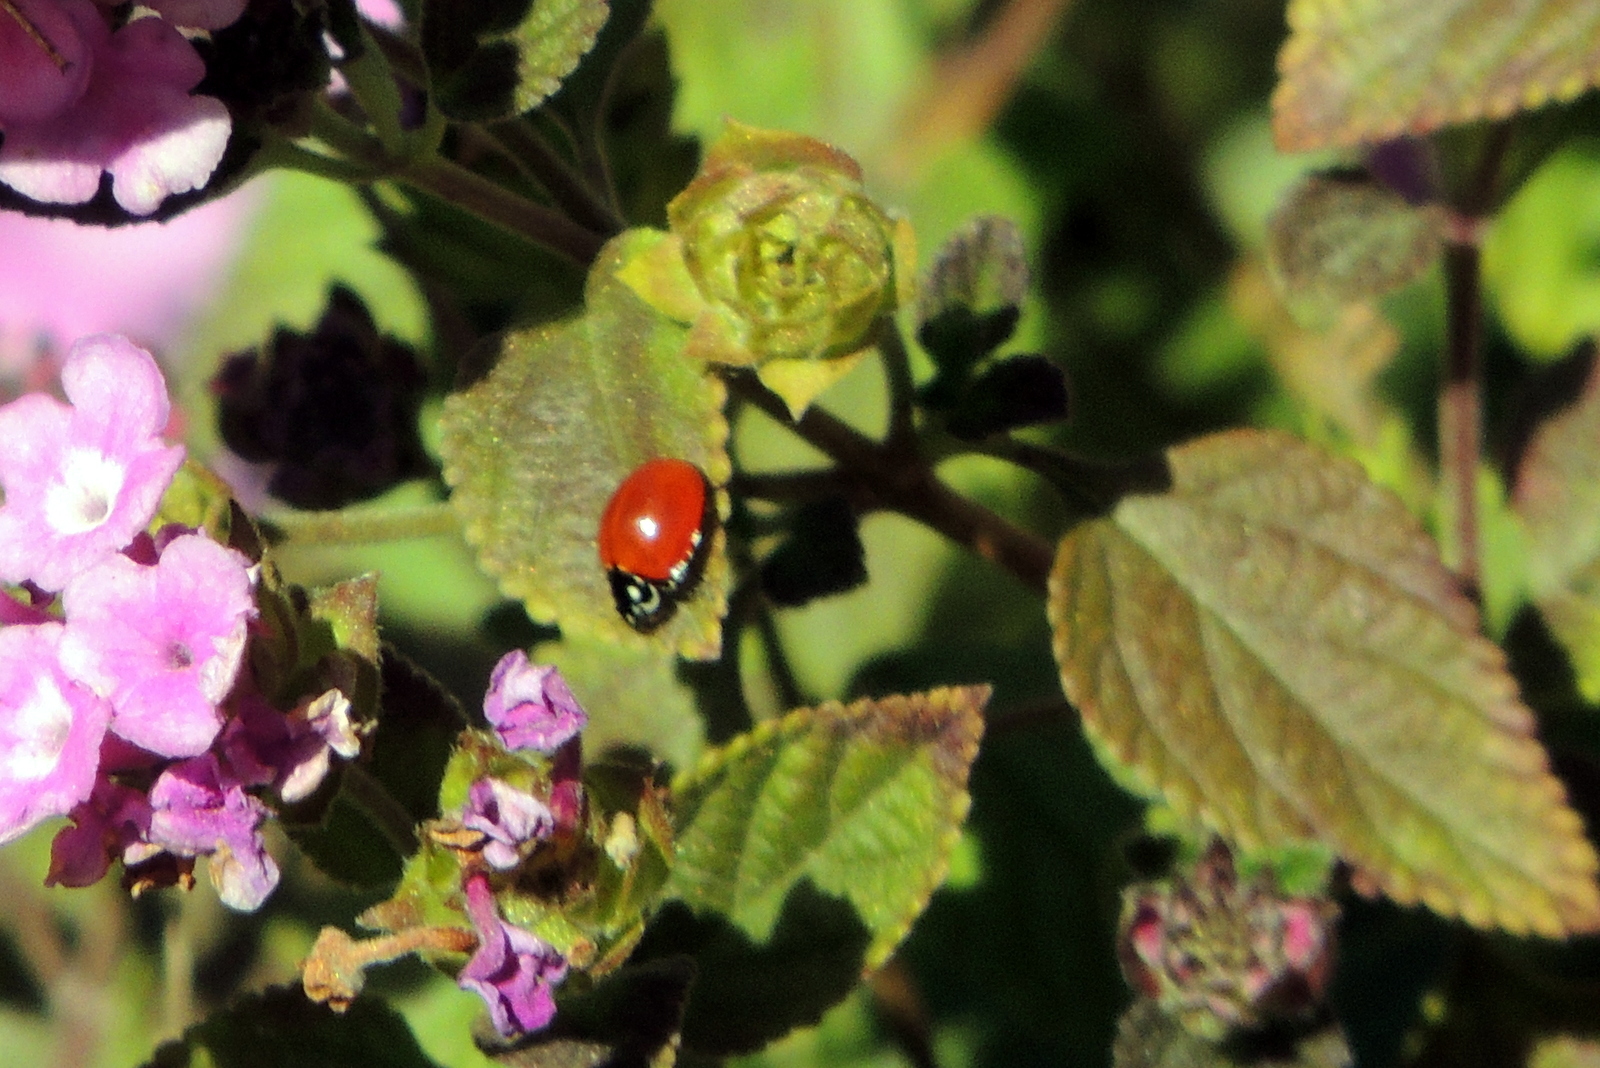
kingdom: Animalia
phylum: Arthropoda
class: Insecta
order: Coleoptera
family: Coccinellidae
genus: Cycloneda
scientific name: Cycloneda sanguinea
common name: Ladybird beetle
